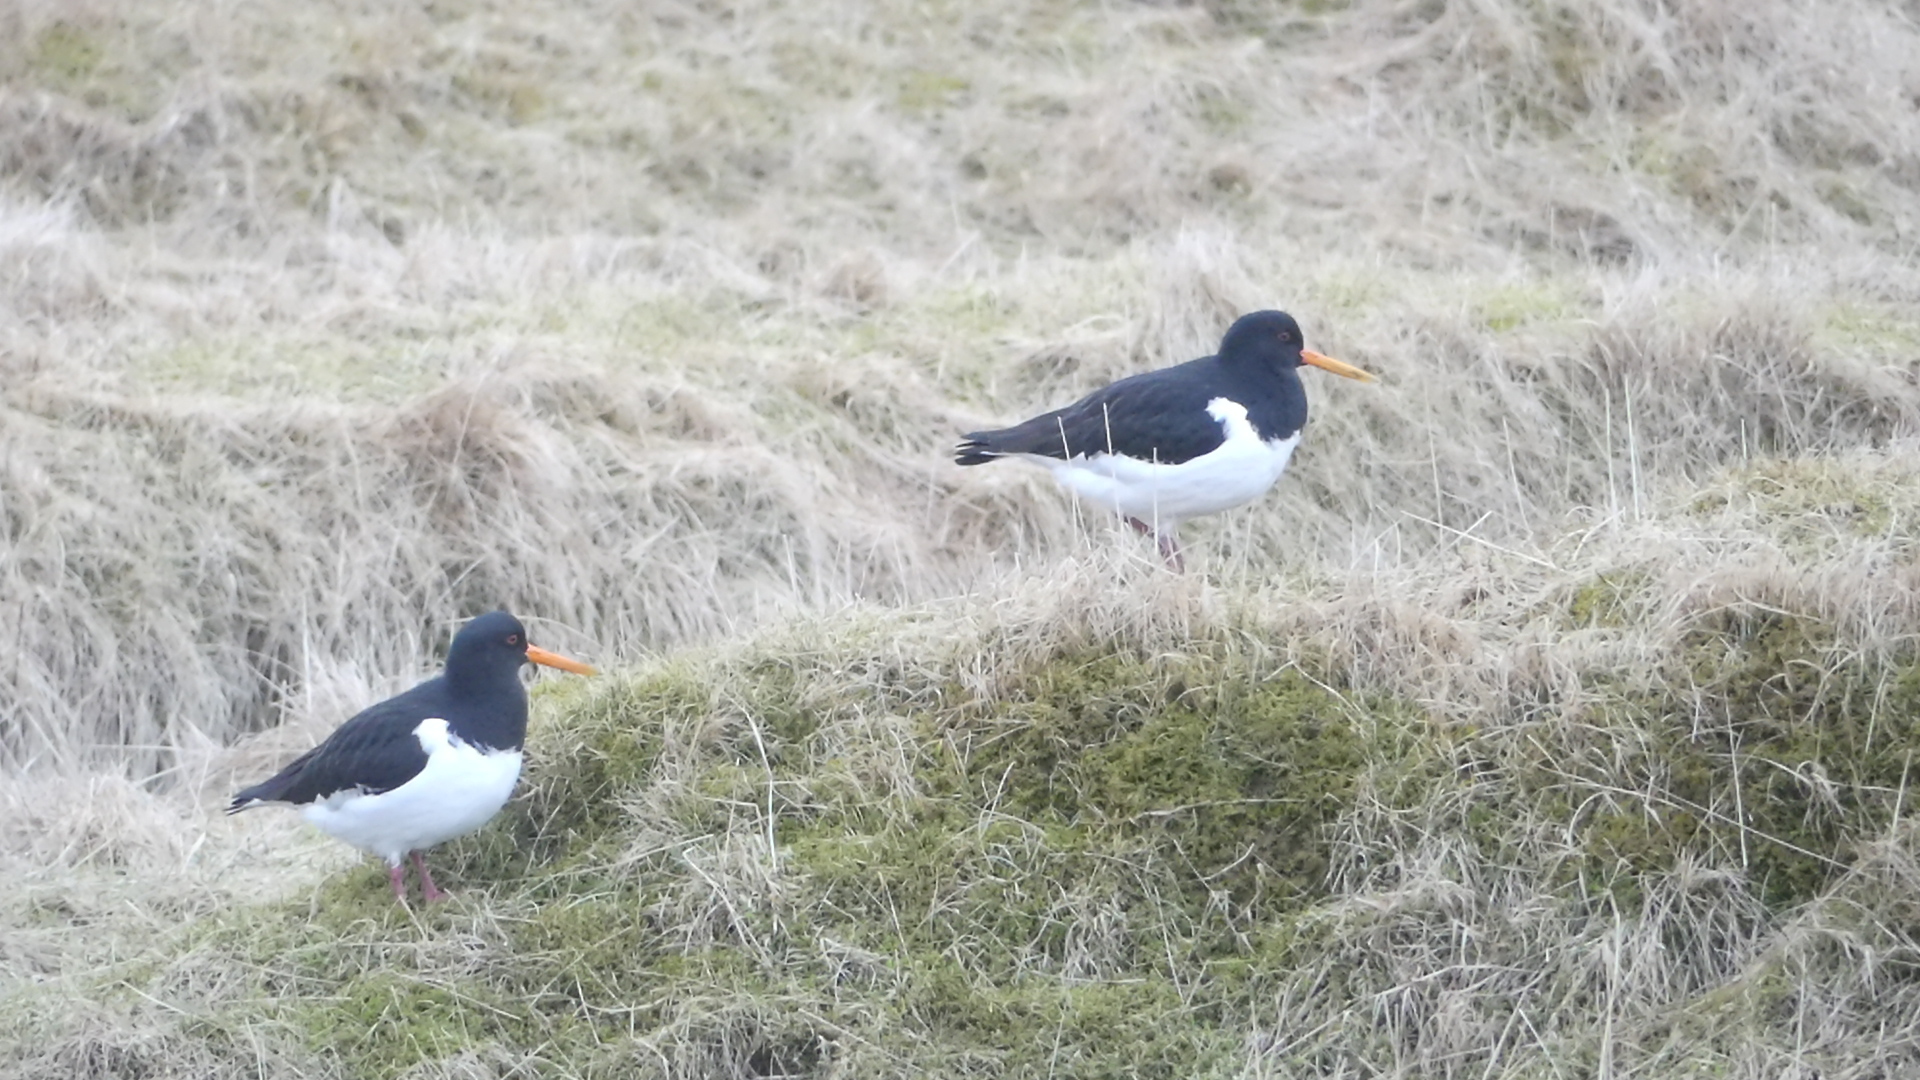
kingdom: Animalia
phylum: Chordata
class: Aves
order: Charadriiformes
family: Haematopodidae
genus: Haematopus
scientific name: Haematopus ostralegus
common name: Eurasian oystercatcher
